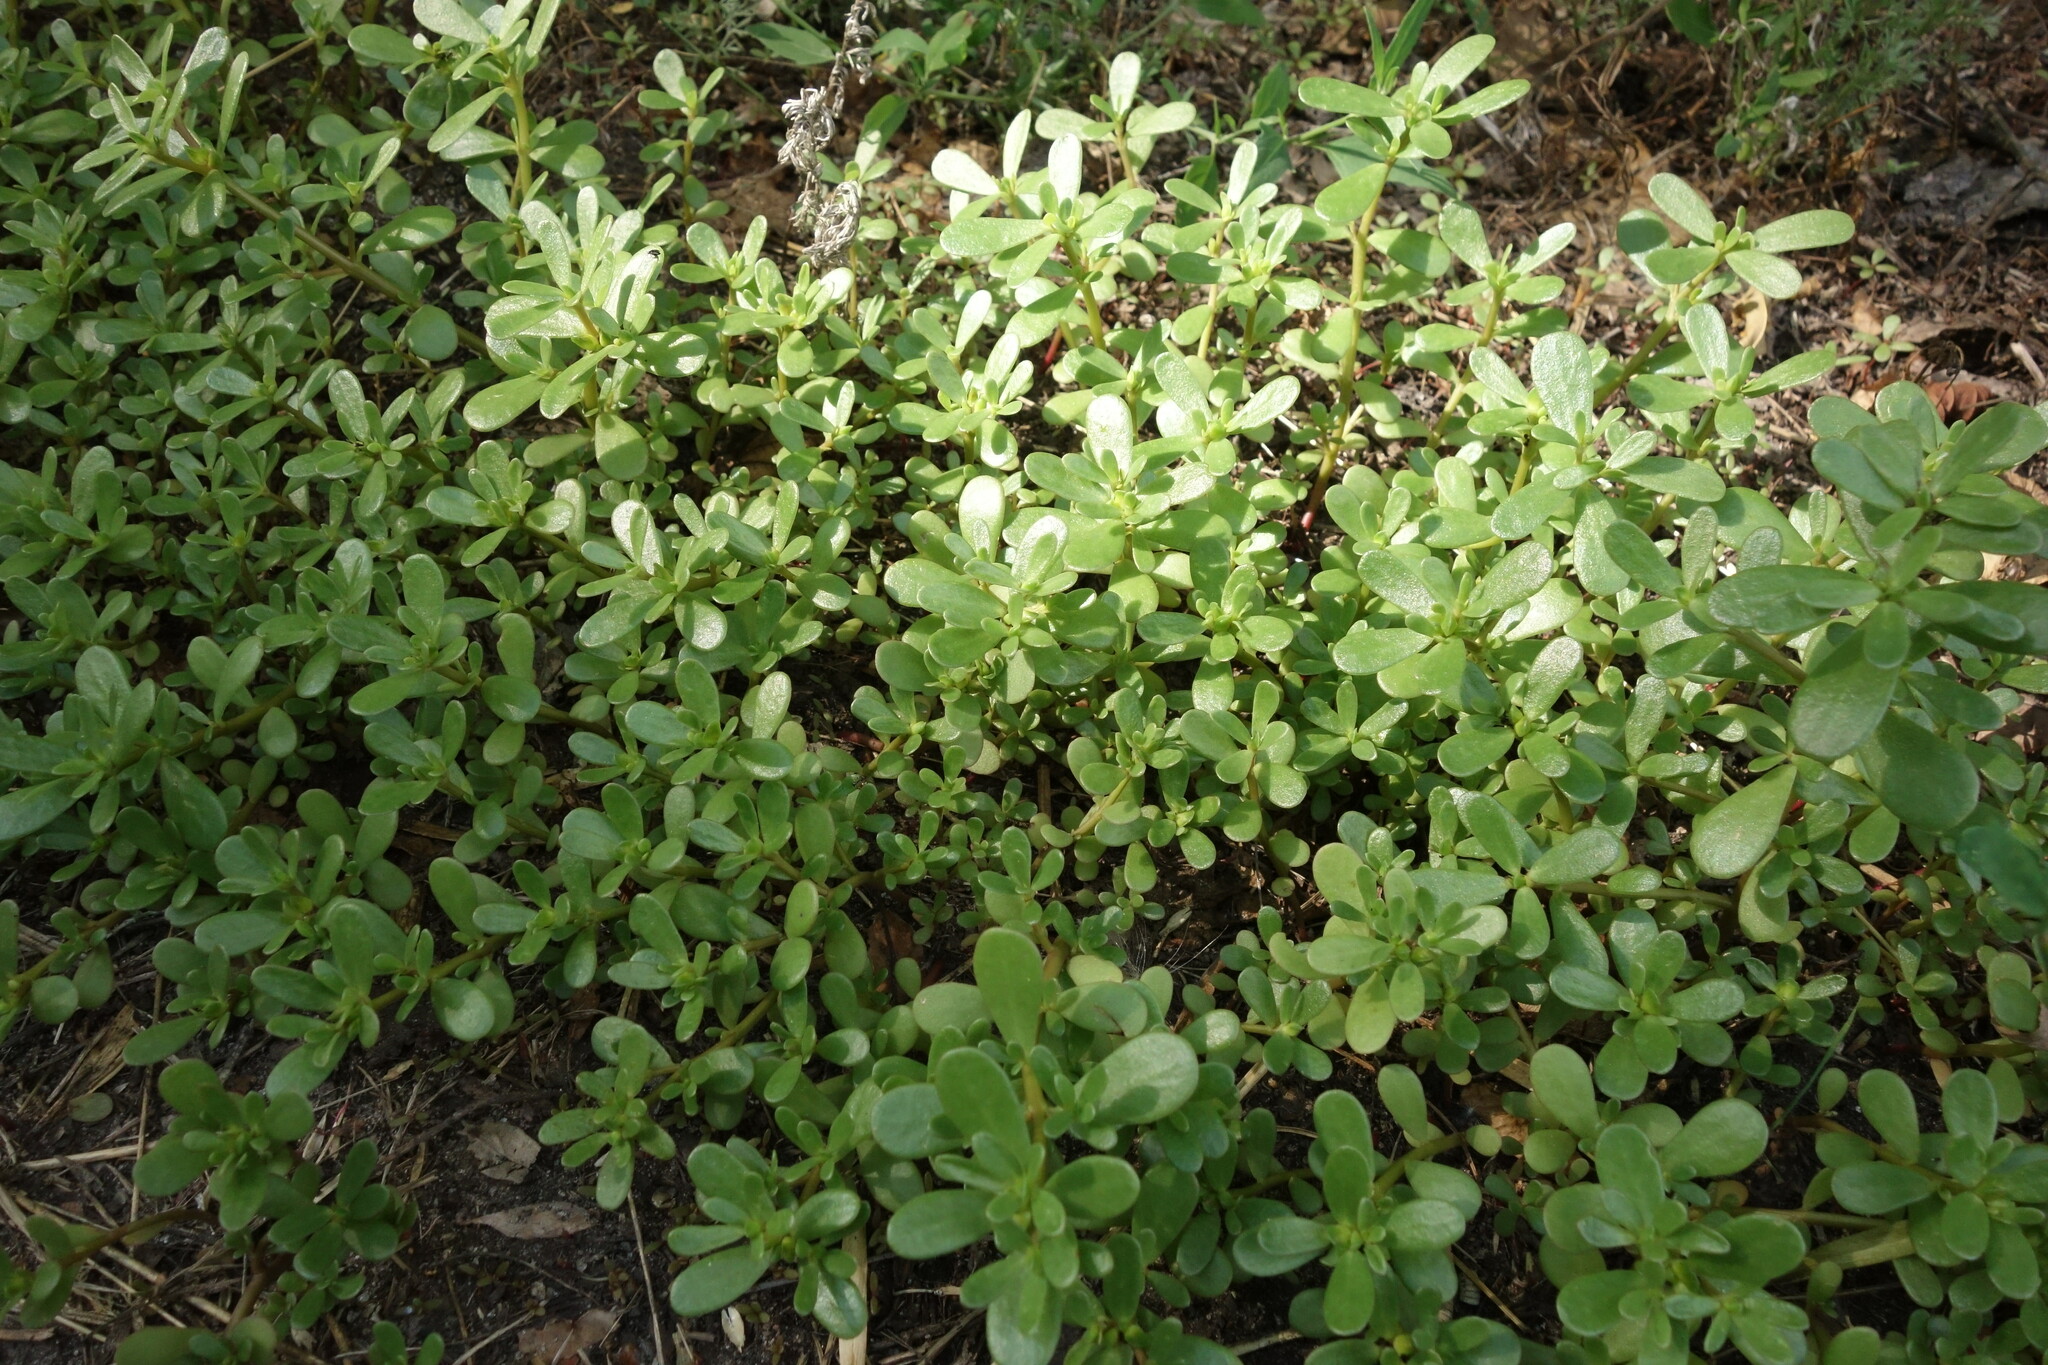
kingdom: Plantae
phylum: Tracheophyta
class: Magnoliopsida
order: Caryophyllales
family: Portulacaceae
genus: Portulaca
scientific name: Portulaca oleracea
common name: Common purslane
